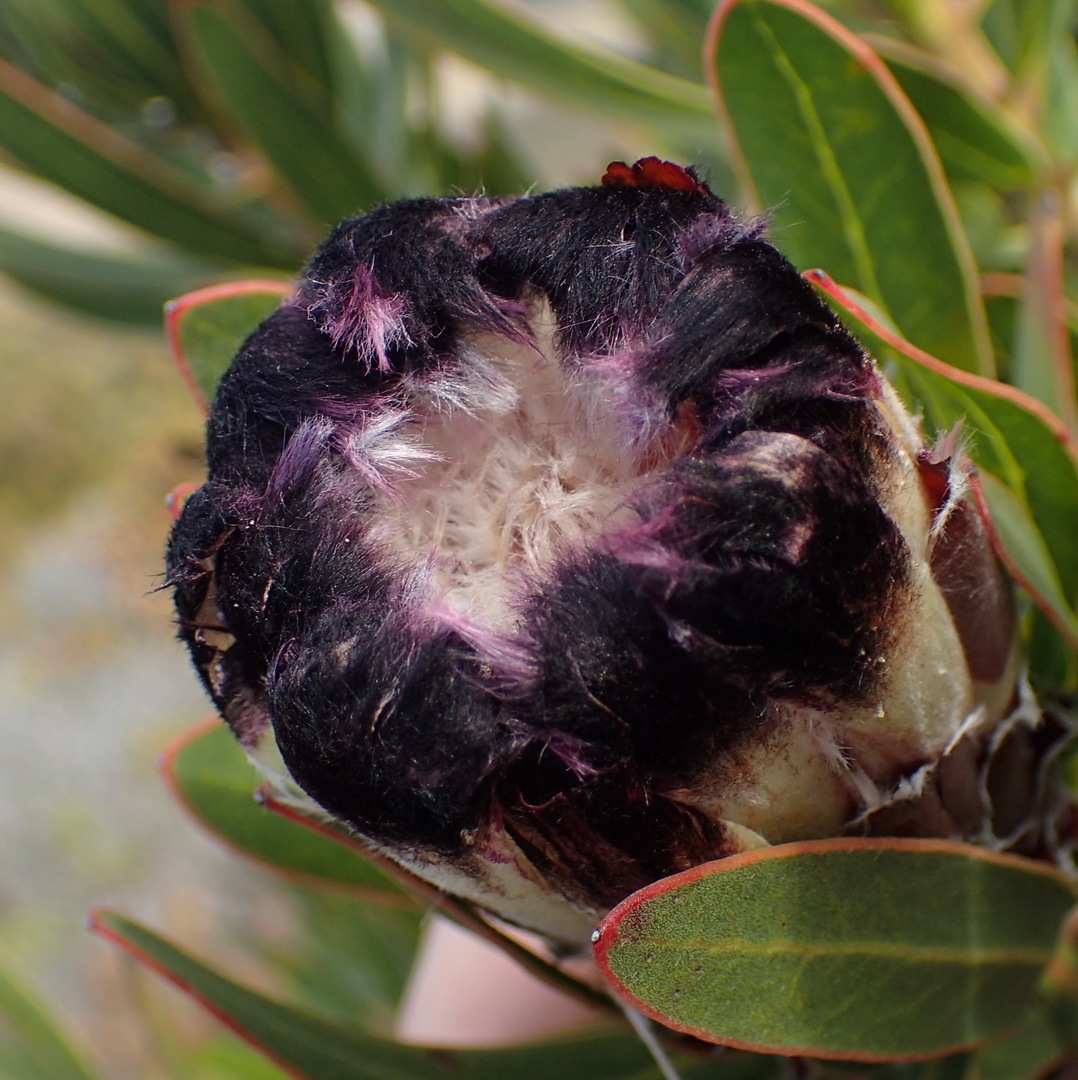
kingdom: Plantae
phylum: Tracheophyta
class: Magnoliopsida
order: Proteales
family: Proteaceae
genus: Protea
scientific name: Protea lepidocarpodendron
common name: Black-bearded protea
